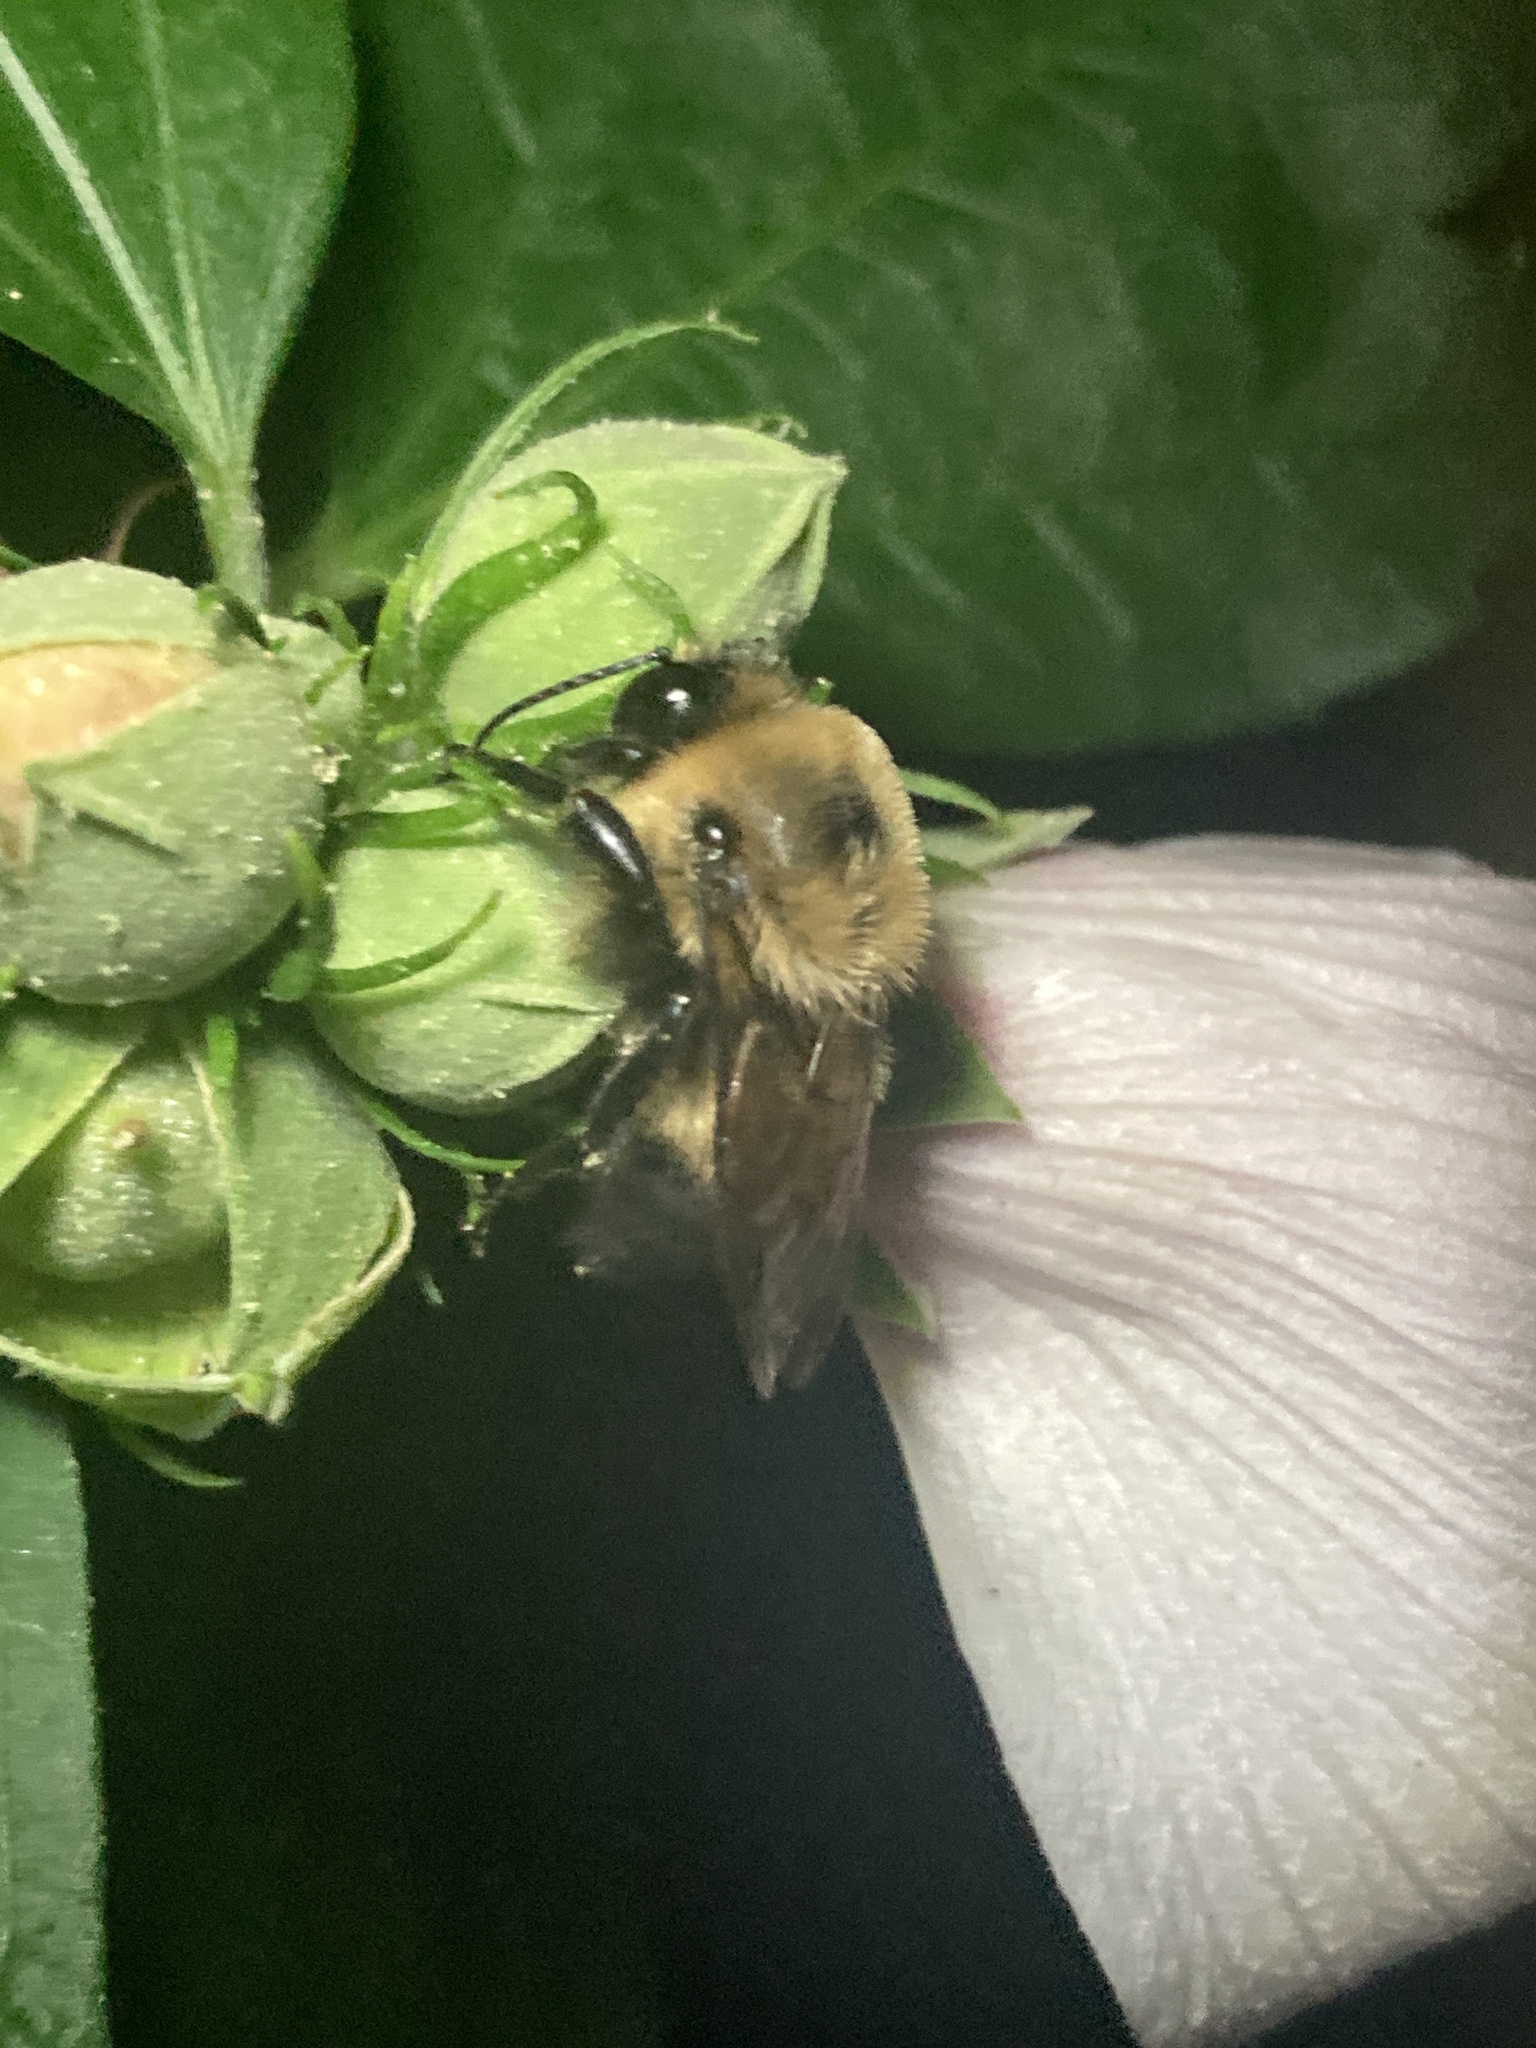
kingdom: Animalia
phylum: Arthropoda
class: Insecta
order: Hymenoptera
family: Apidae
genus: Bombus
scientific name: Bombus griseocollis
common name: Brown-belted bumble bee
